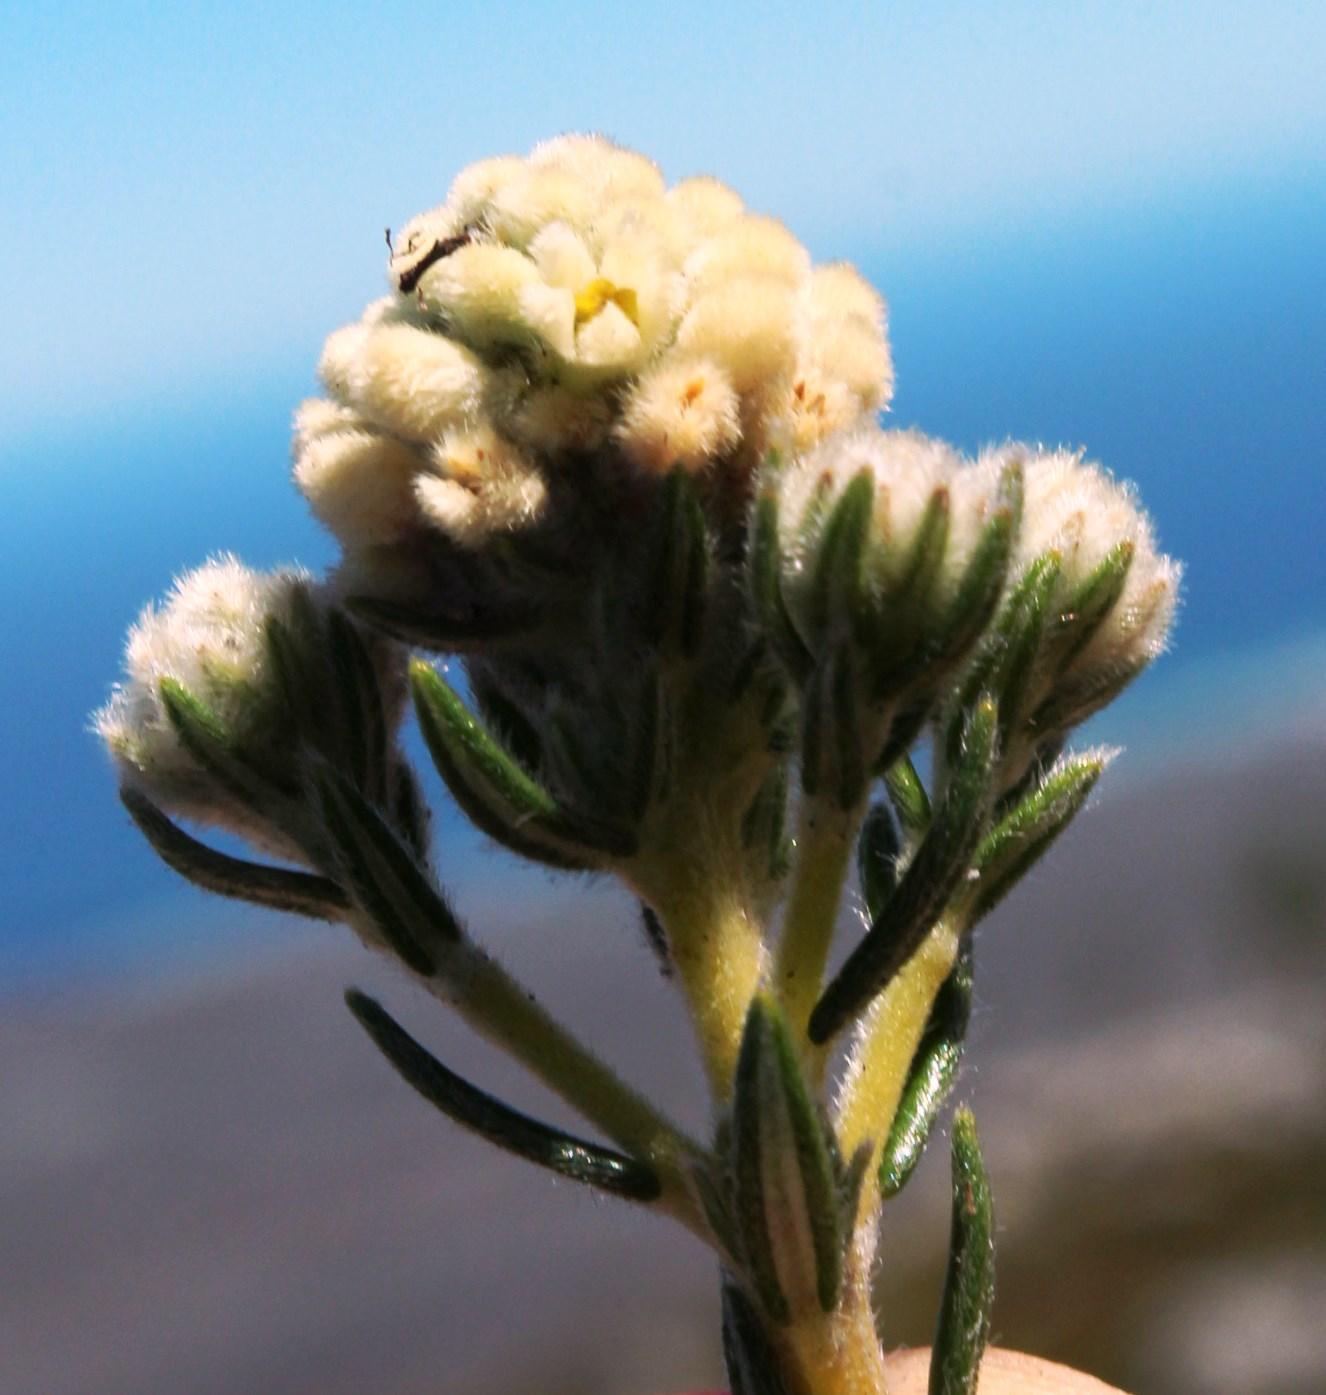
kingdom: Plantae
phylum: Tracheophyta
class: Magnoliopsida
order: Rosales
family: Rhamnaceae
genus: Phylica
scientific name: Phylica imberbis
